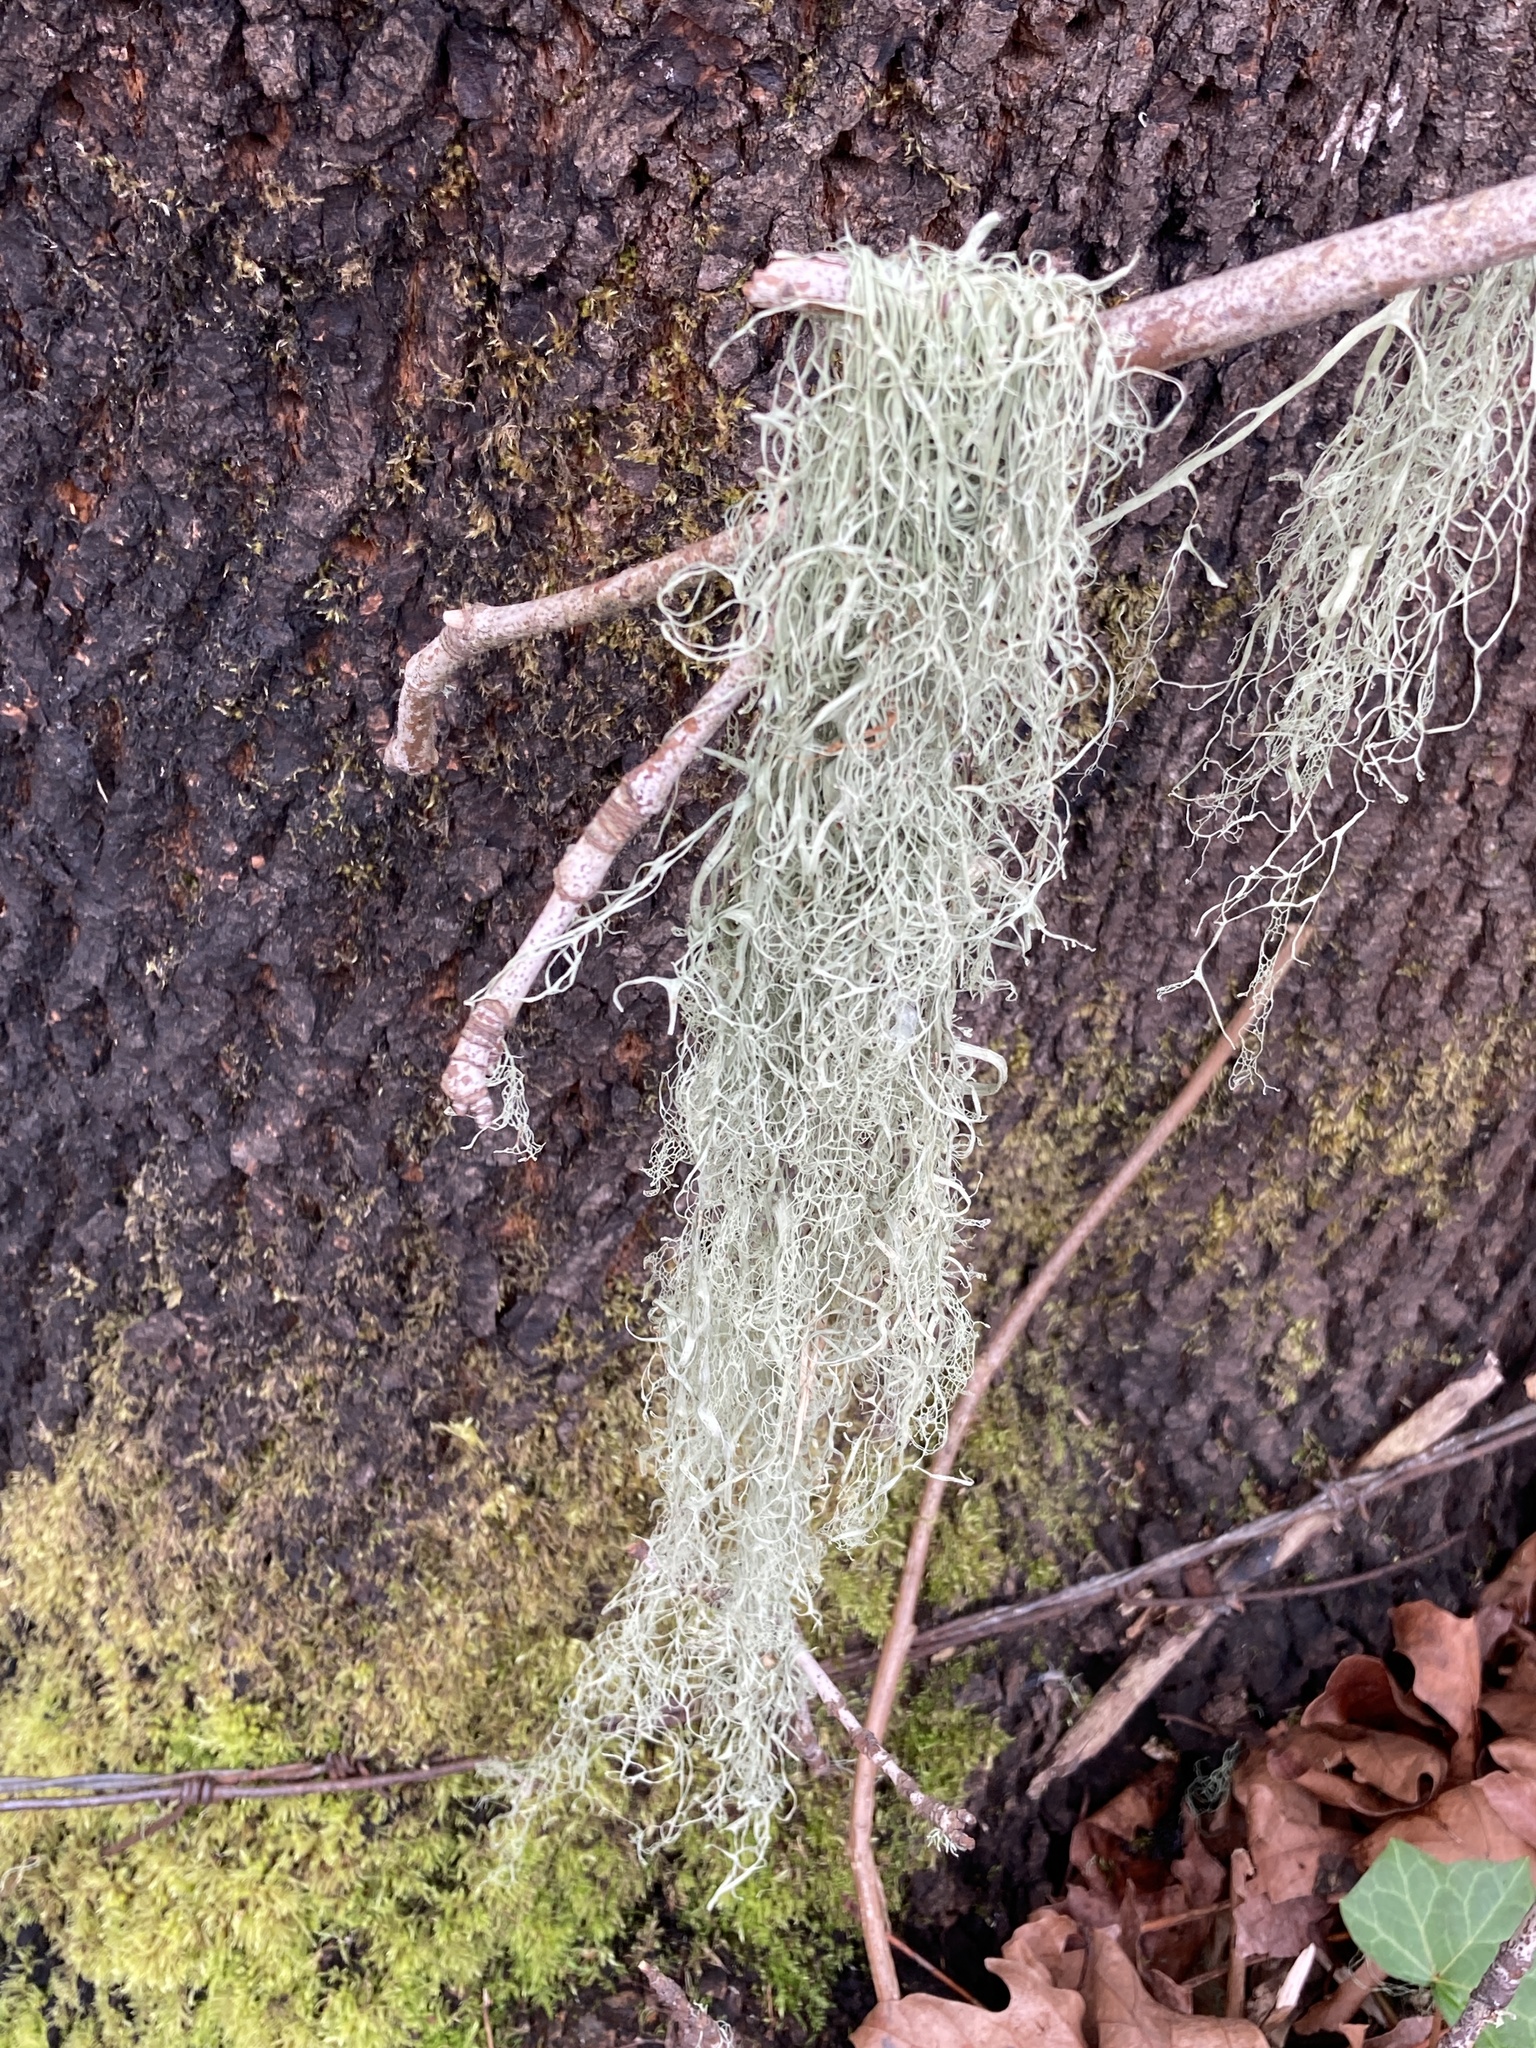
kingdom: Fungi
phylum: Ascomycota
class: Lecanoromycetes
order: Lecanorales
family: Ramalinaceae
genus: Ramalina
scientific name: Ramalina menziesii
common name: Lace lichen
